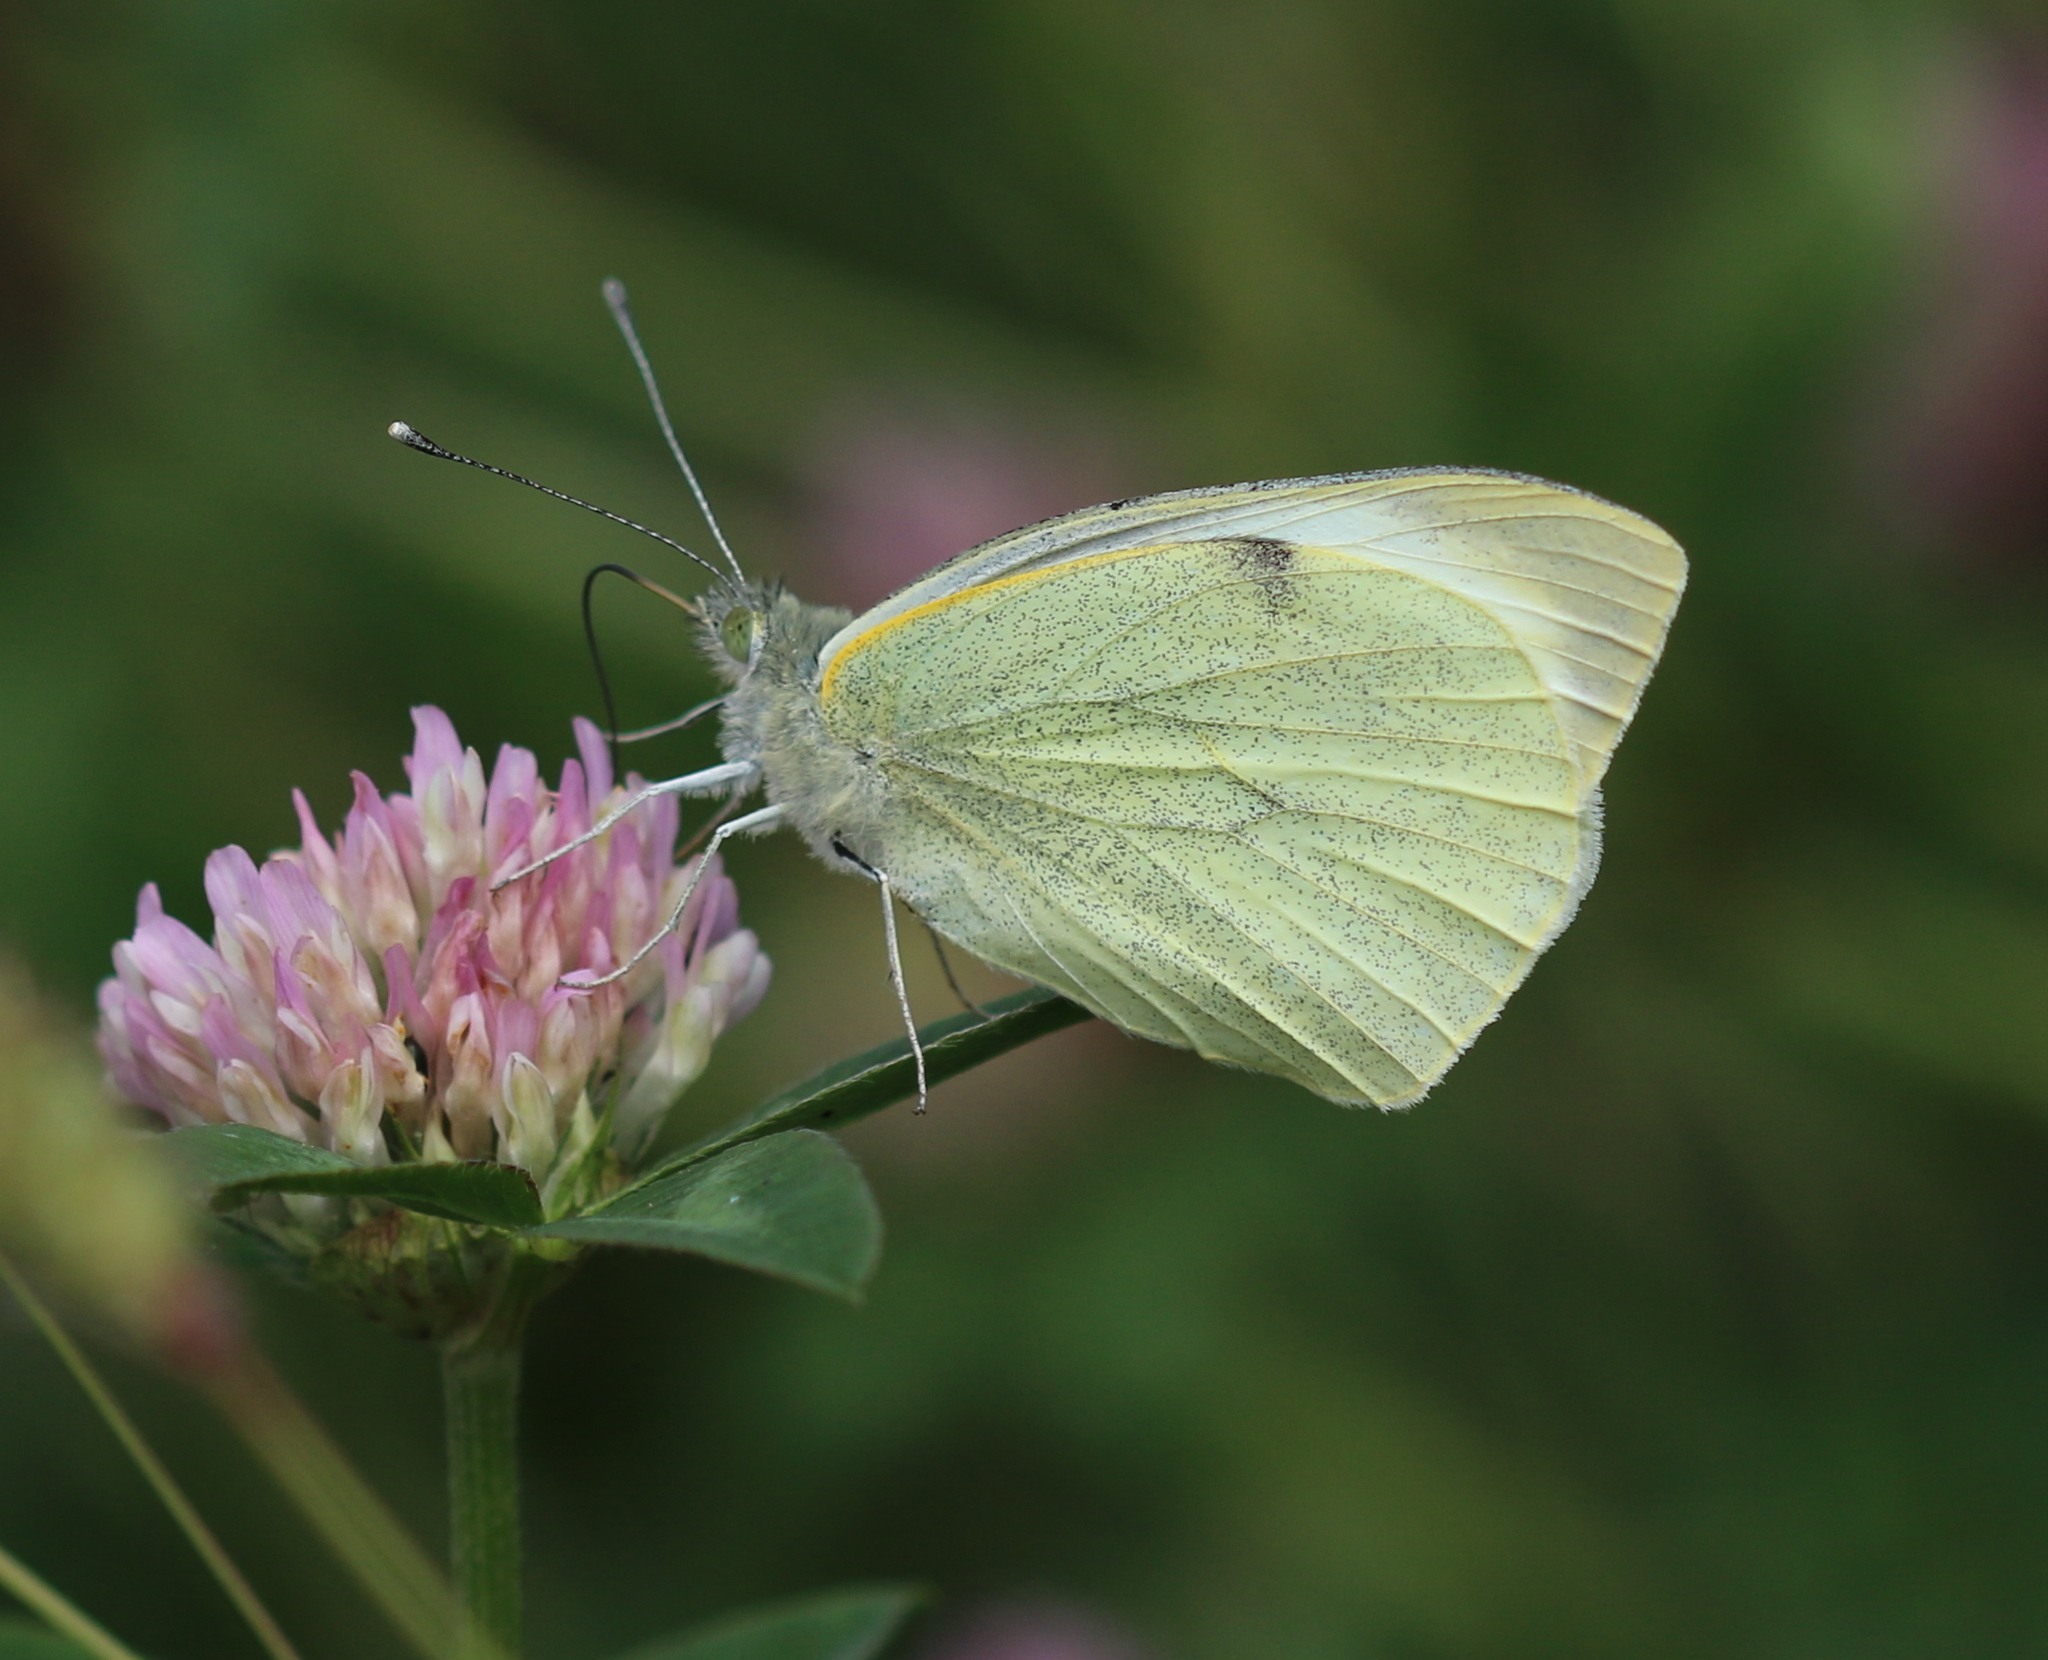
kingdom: Animalia
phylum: Arthropoda
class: Insecta
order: Lepidoptera
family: Pieridae
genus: Pieris
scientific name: Pieris brassicae
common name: Large white
